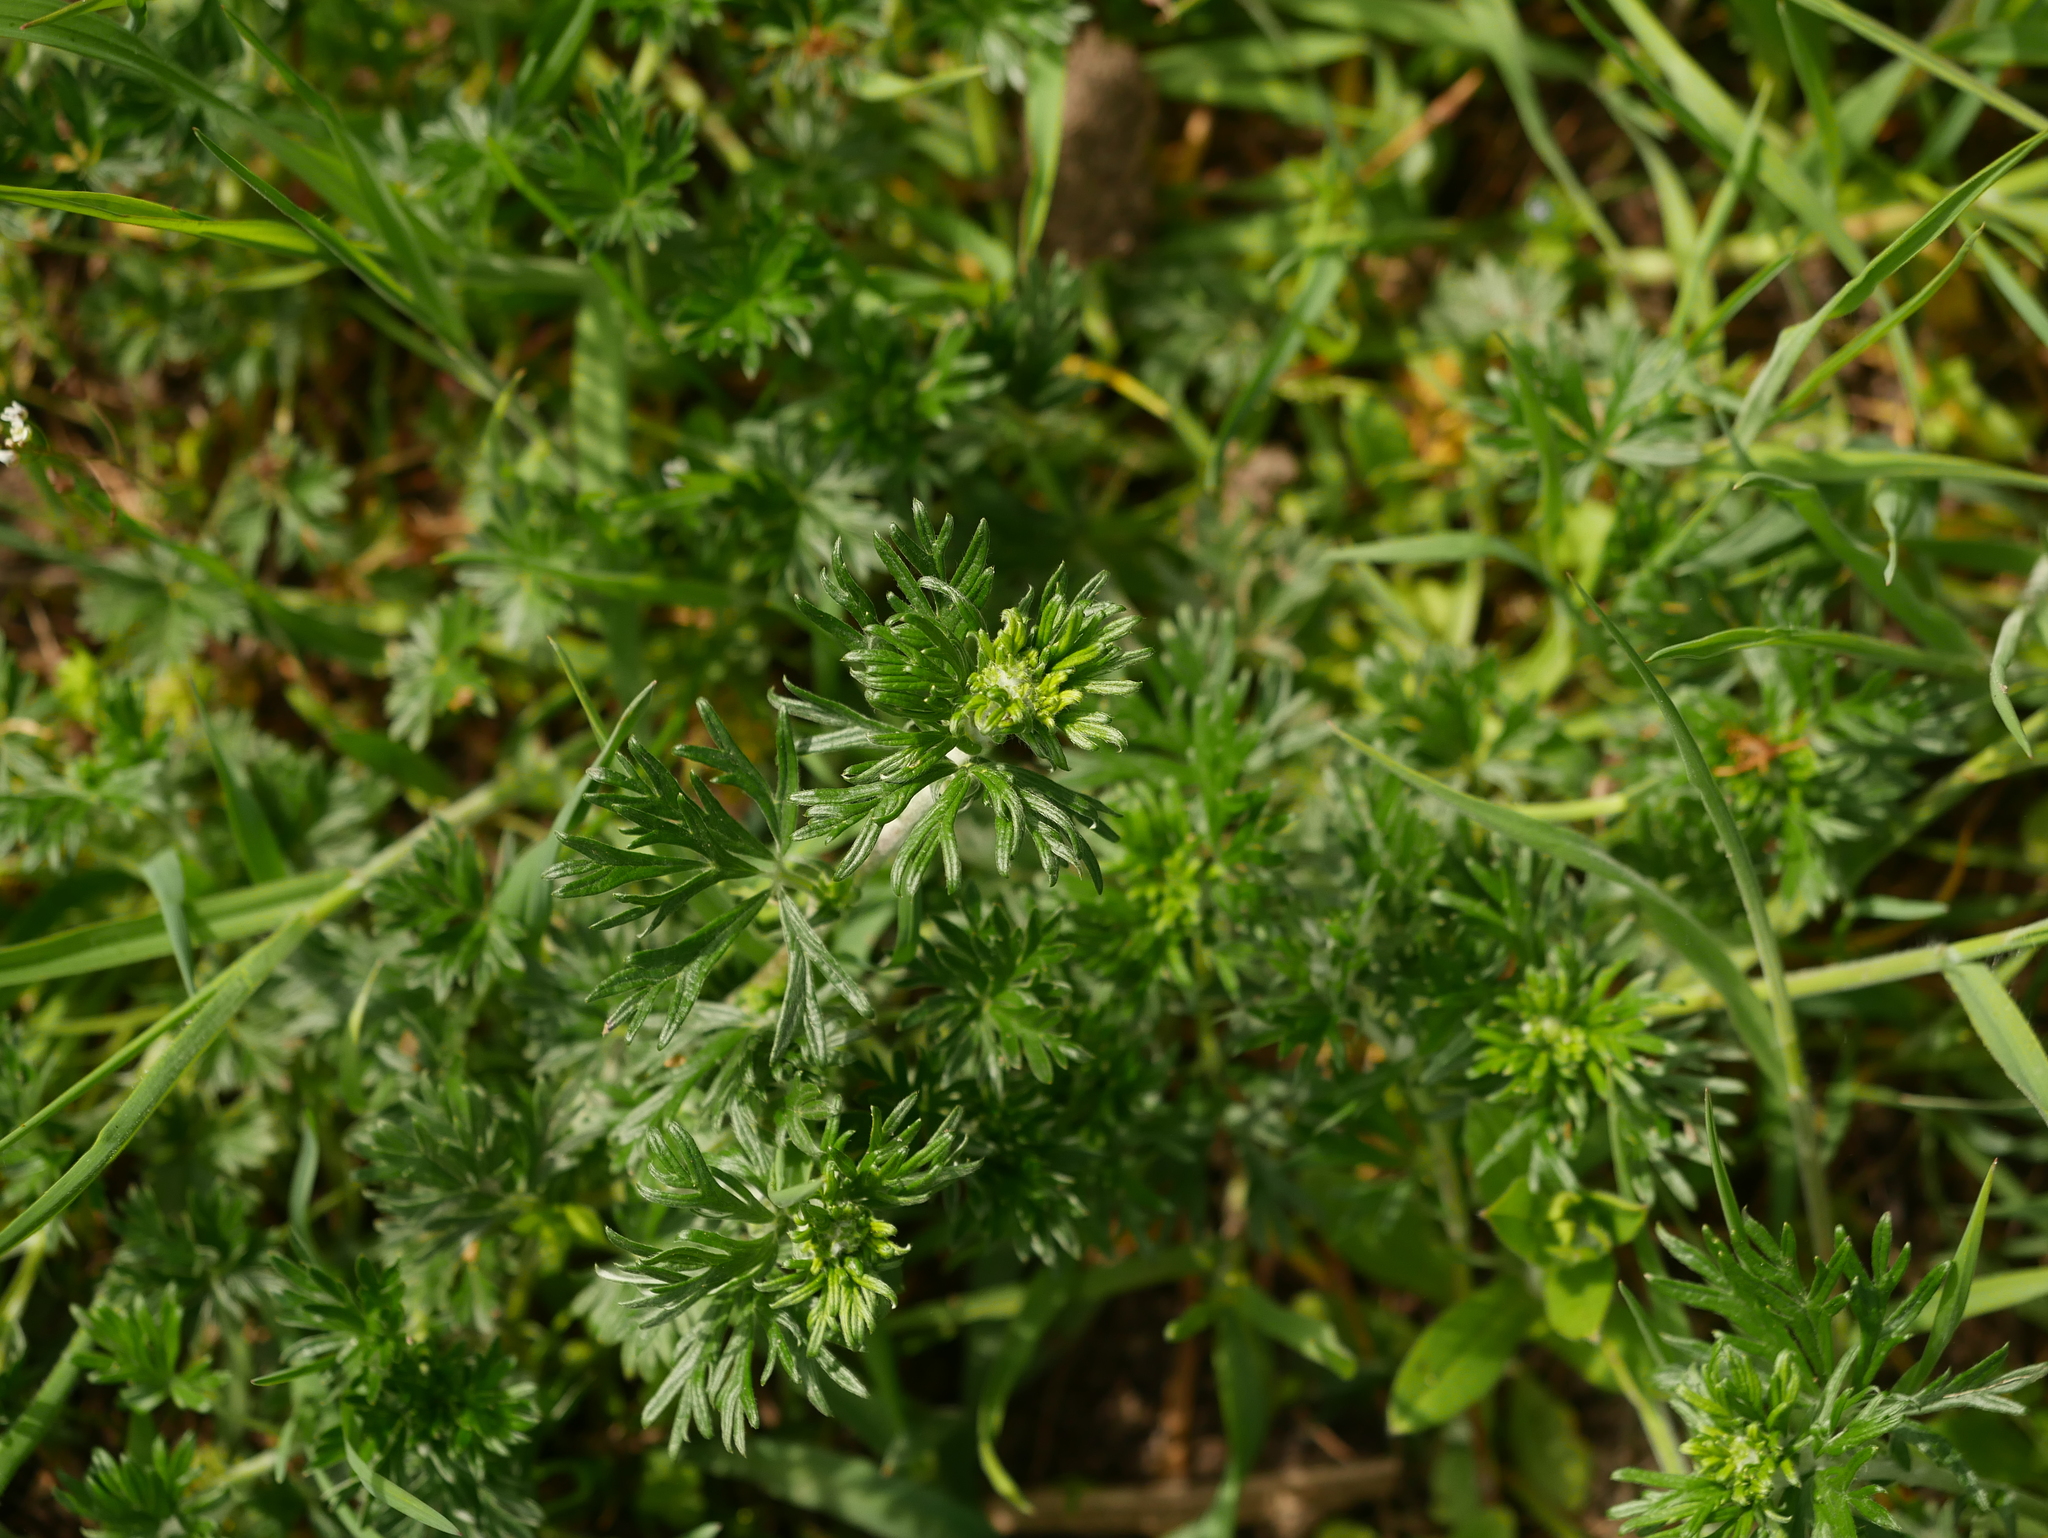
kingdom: Plantae
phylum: Tracheophyta
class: Magnoliopsida
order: Rosales
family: Rosaceae
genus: Potentilla
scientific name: Potentilla argentea
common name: Hoary cinquefoil
